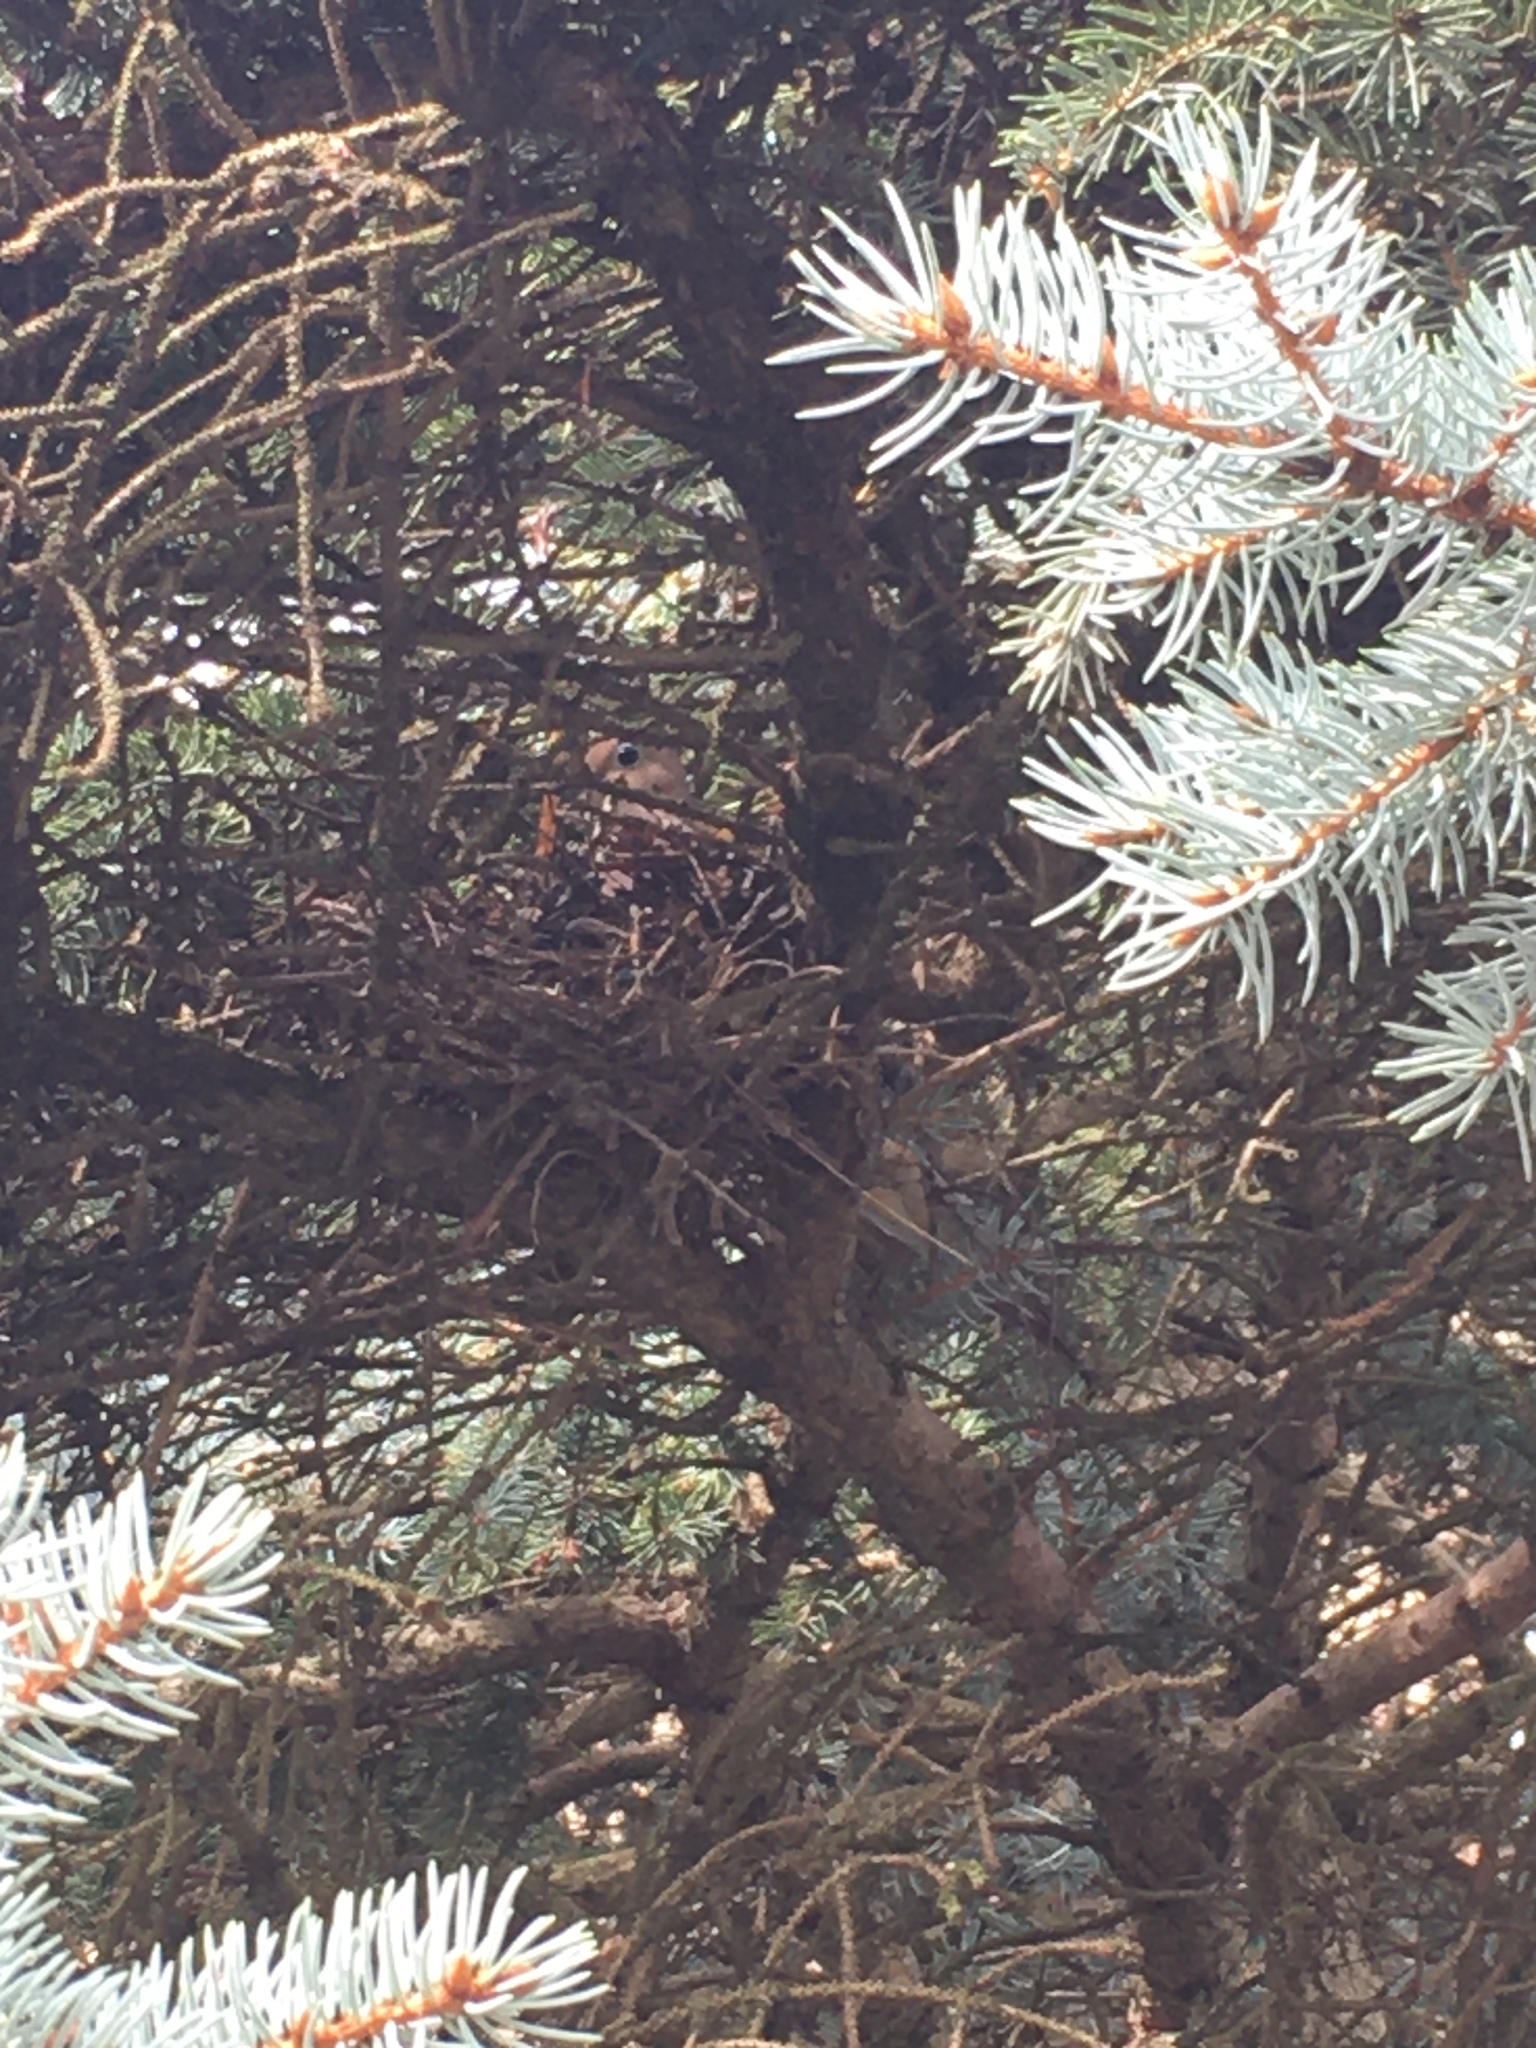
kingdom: Animalia
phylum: Chordata
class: Aves
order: Columbiformes
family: Columbidae
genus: Zenaida
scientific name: Zenaida macroura
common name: Mourning dove
